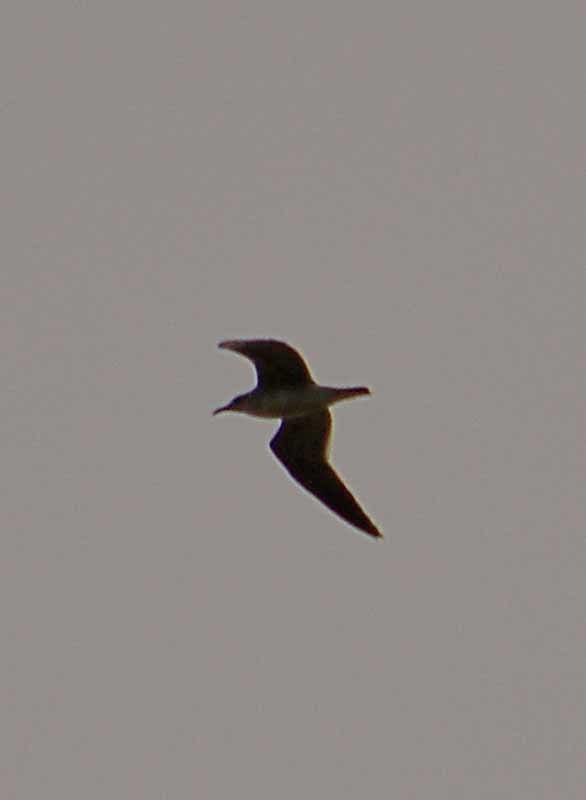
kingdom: Animalia
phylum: Chordata
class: Aves
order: Charadriiformes
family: Laridae
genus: Leucophaeus
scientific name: Leucophaeus atricilla
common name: Laughing gull
